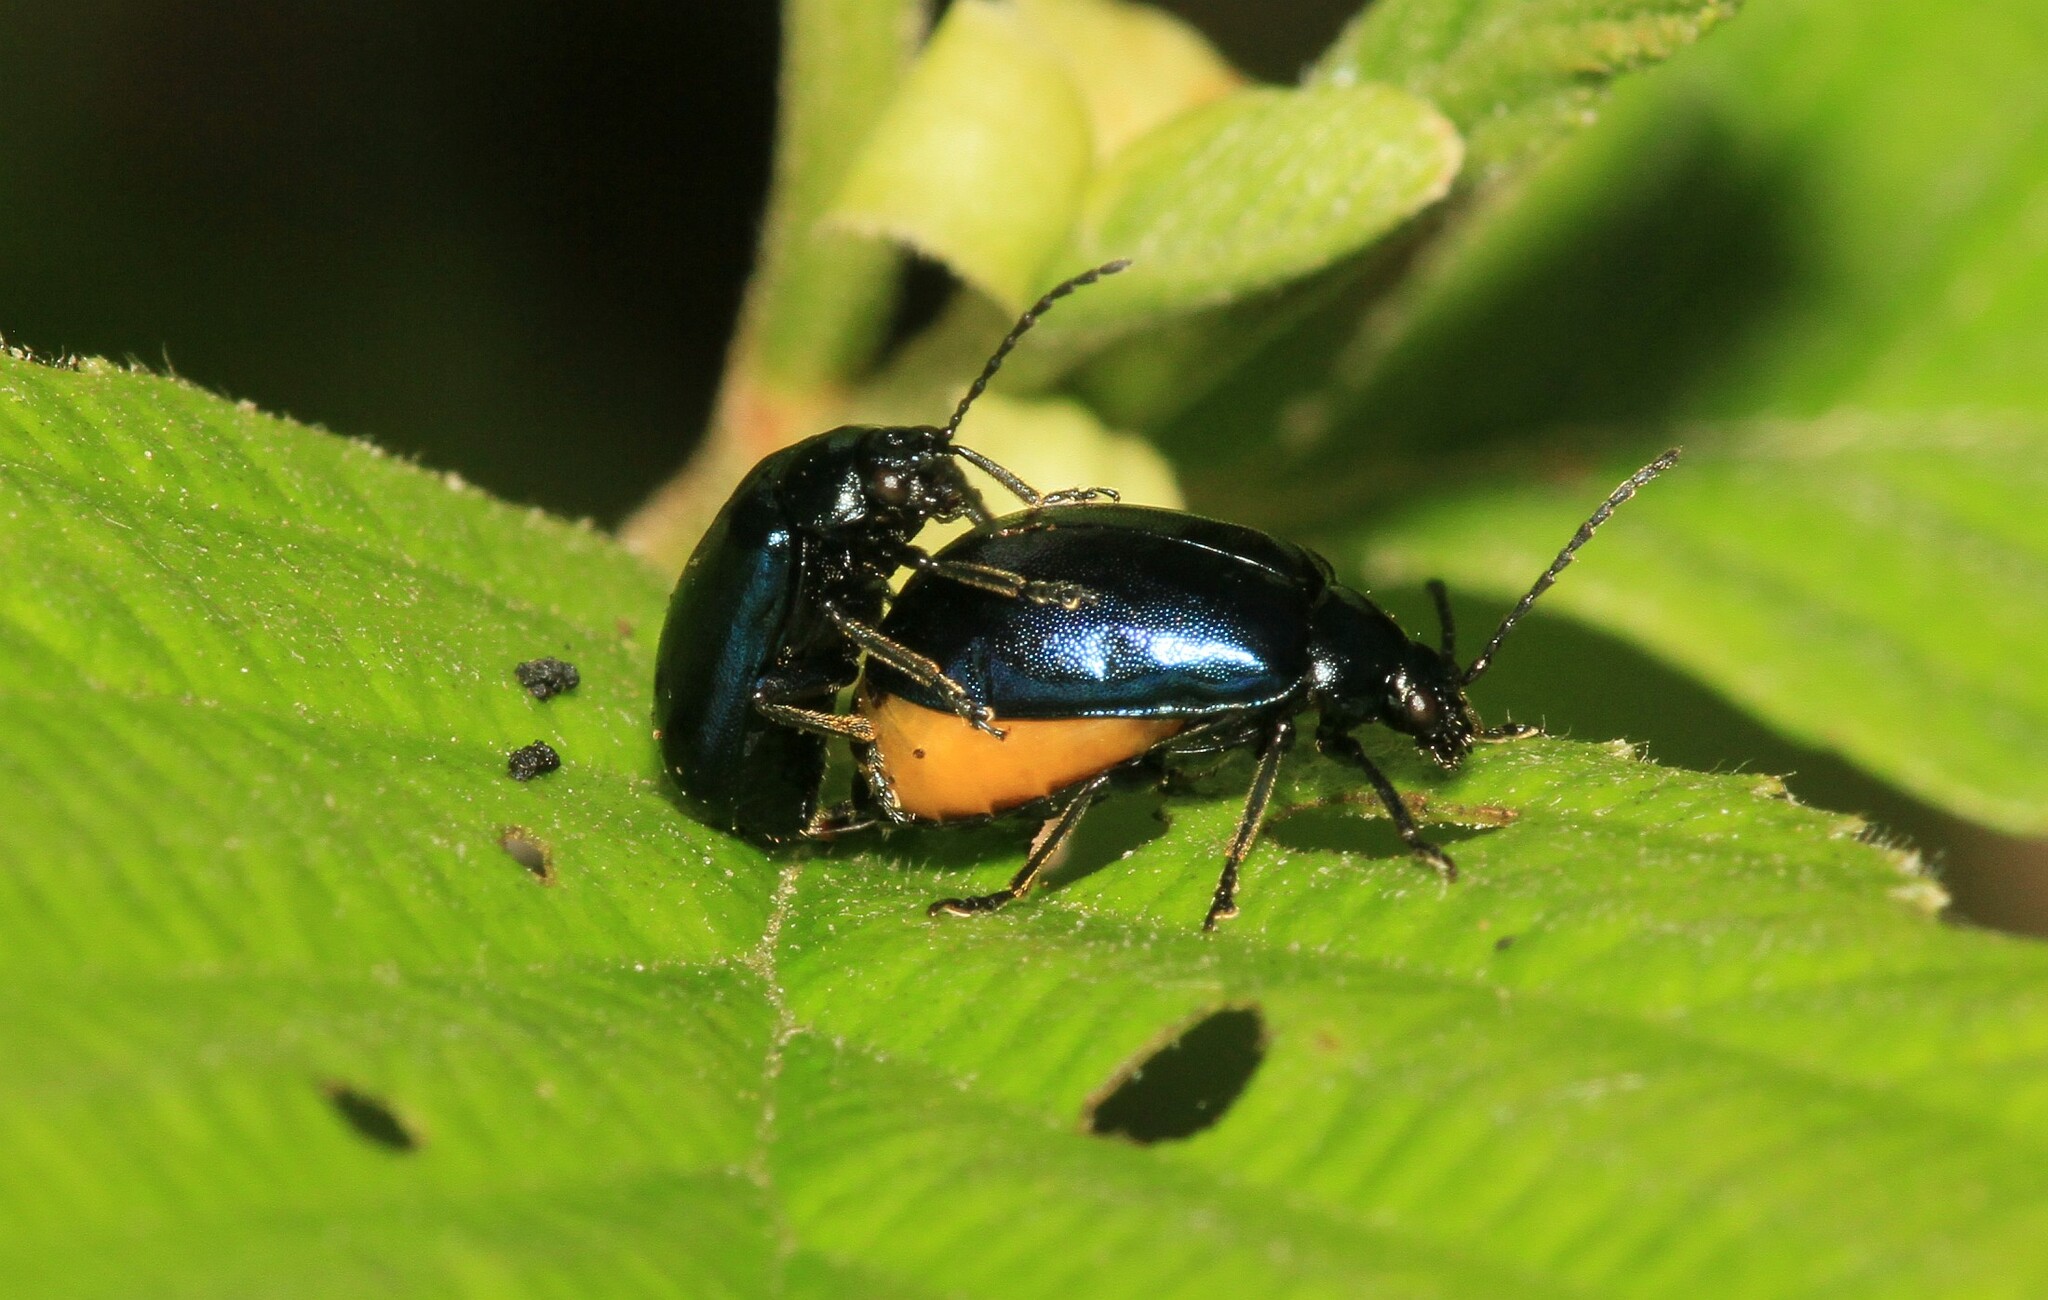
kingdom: Animalia
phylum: Arthropoda
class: Insecta
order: Coleoptera
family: Chrysomelidae
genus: Agelastica
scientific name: Agelastica alni
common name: Alder leaf beetle
